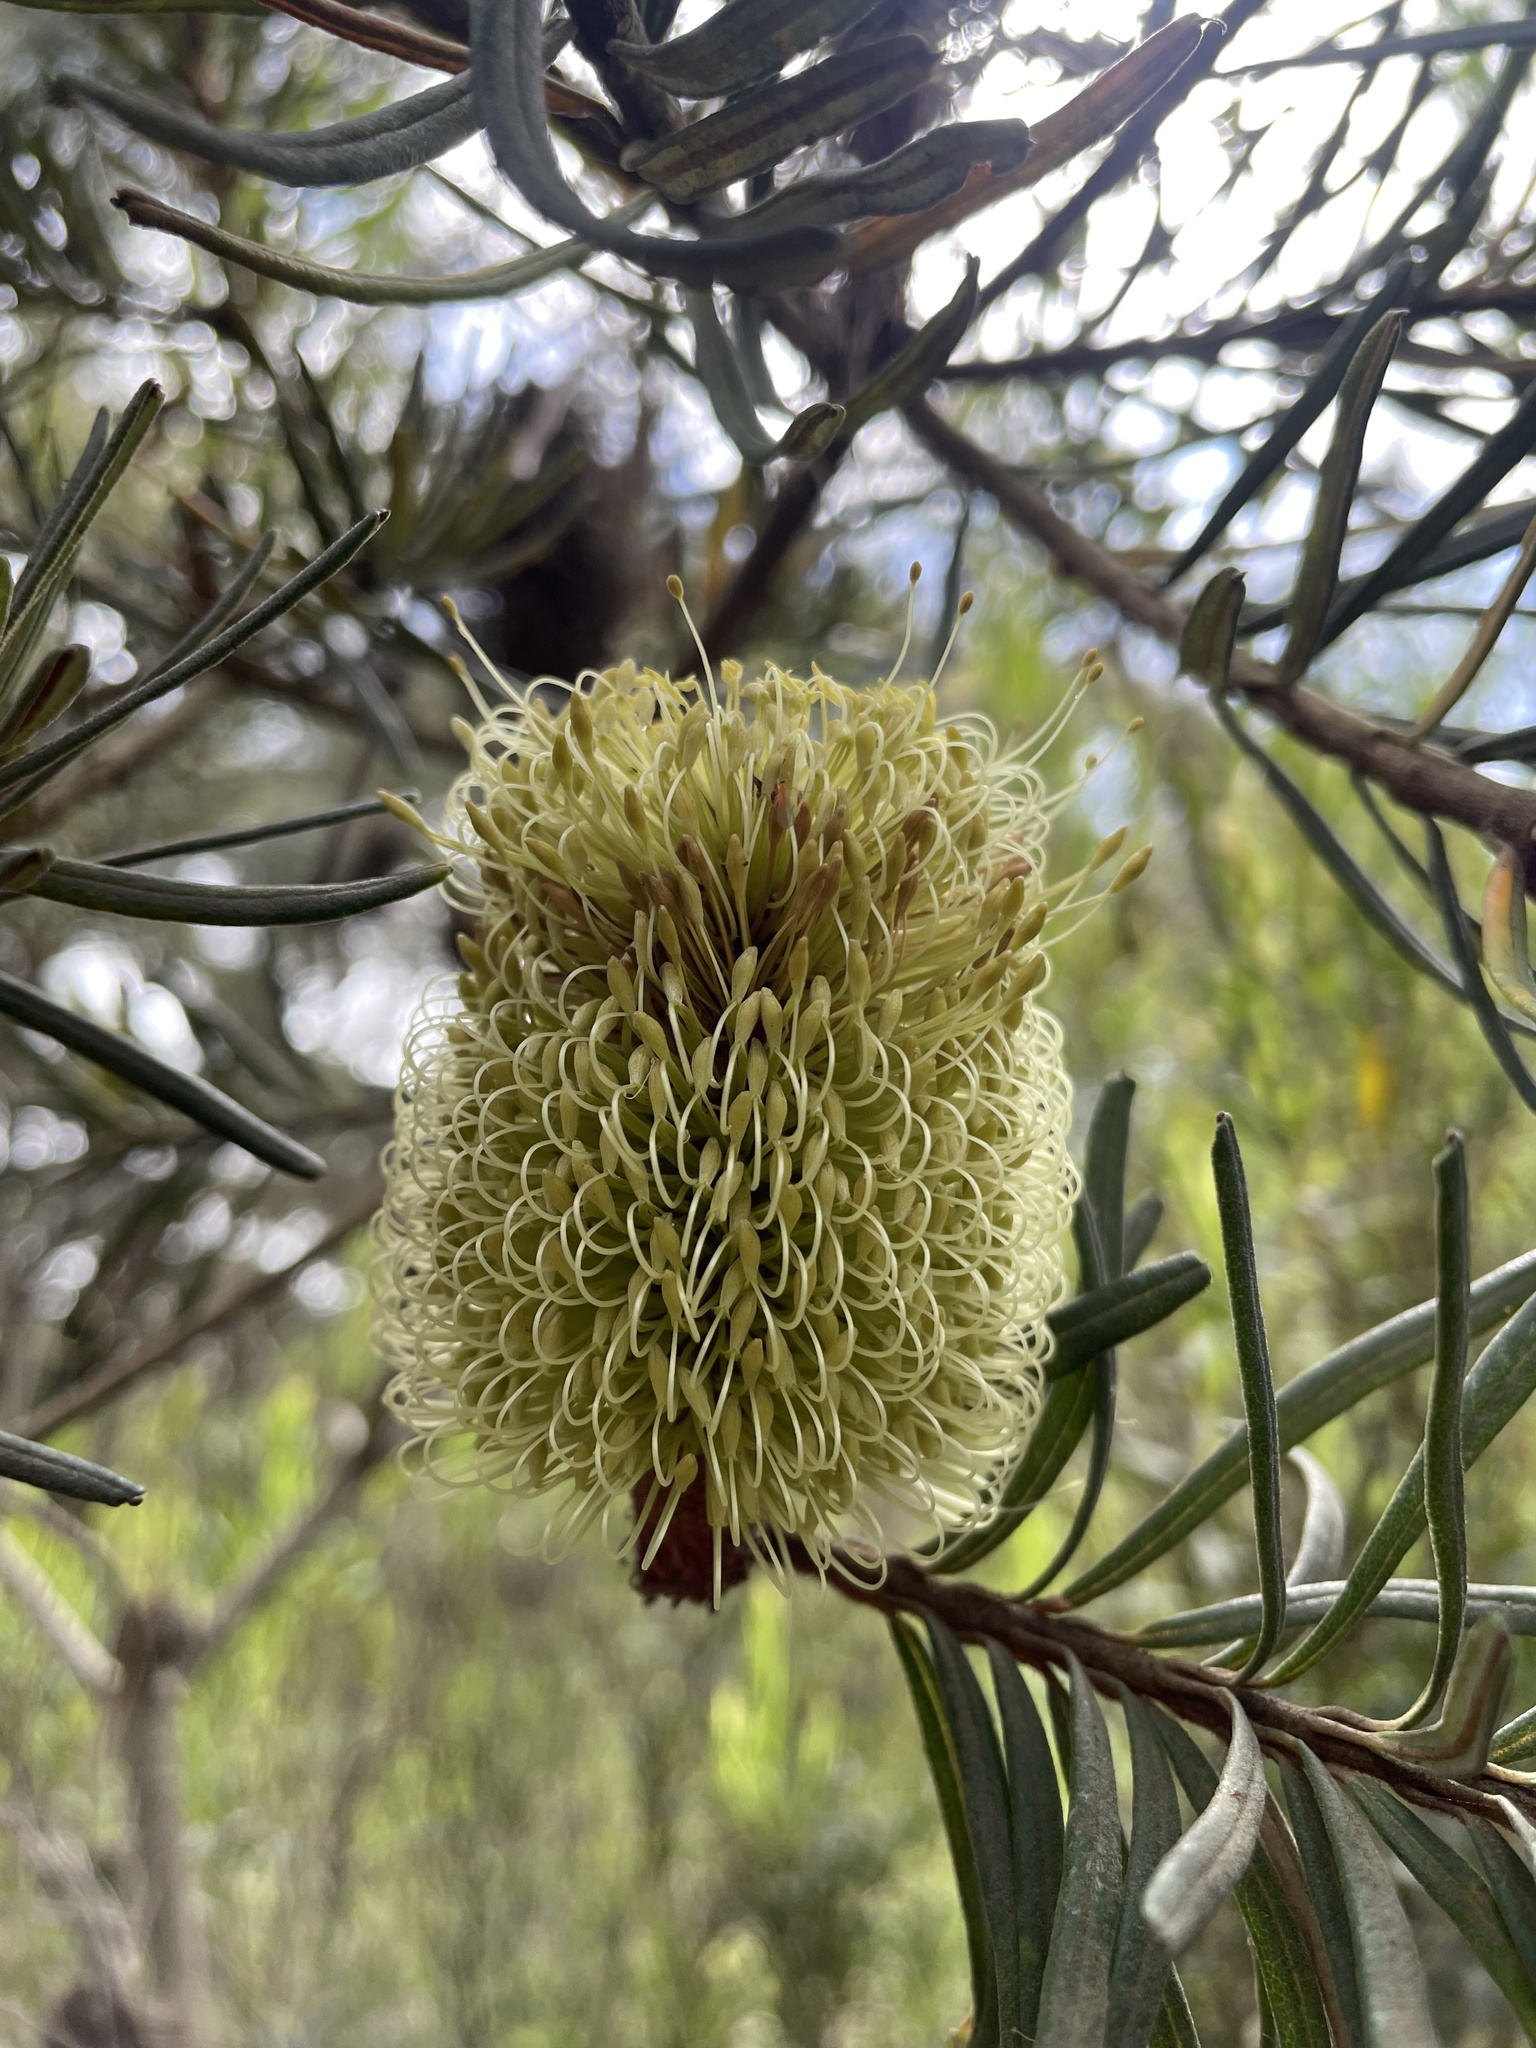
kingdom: Plantae
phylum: Tracheophyta
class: Magnoliopsida
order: Proteales
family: Proteaceae
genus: Banksia
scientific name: Banksia marginata
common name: Silver banksia
